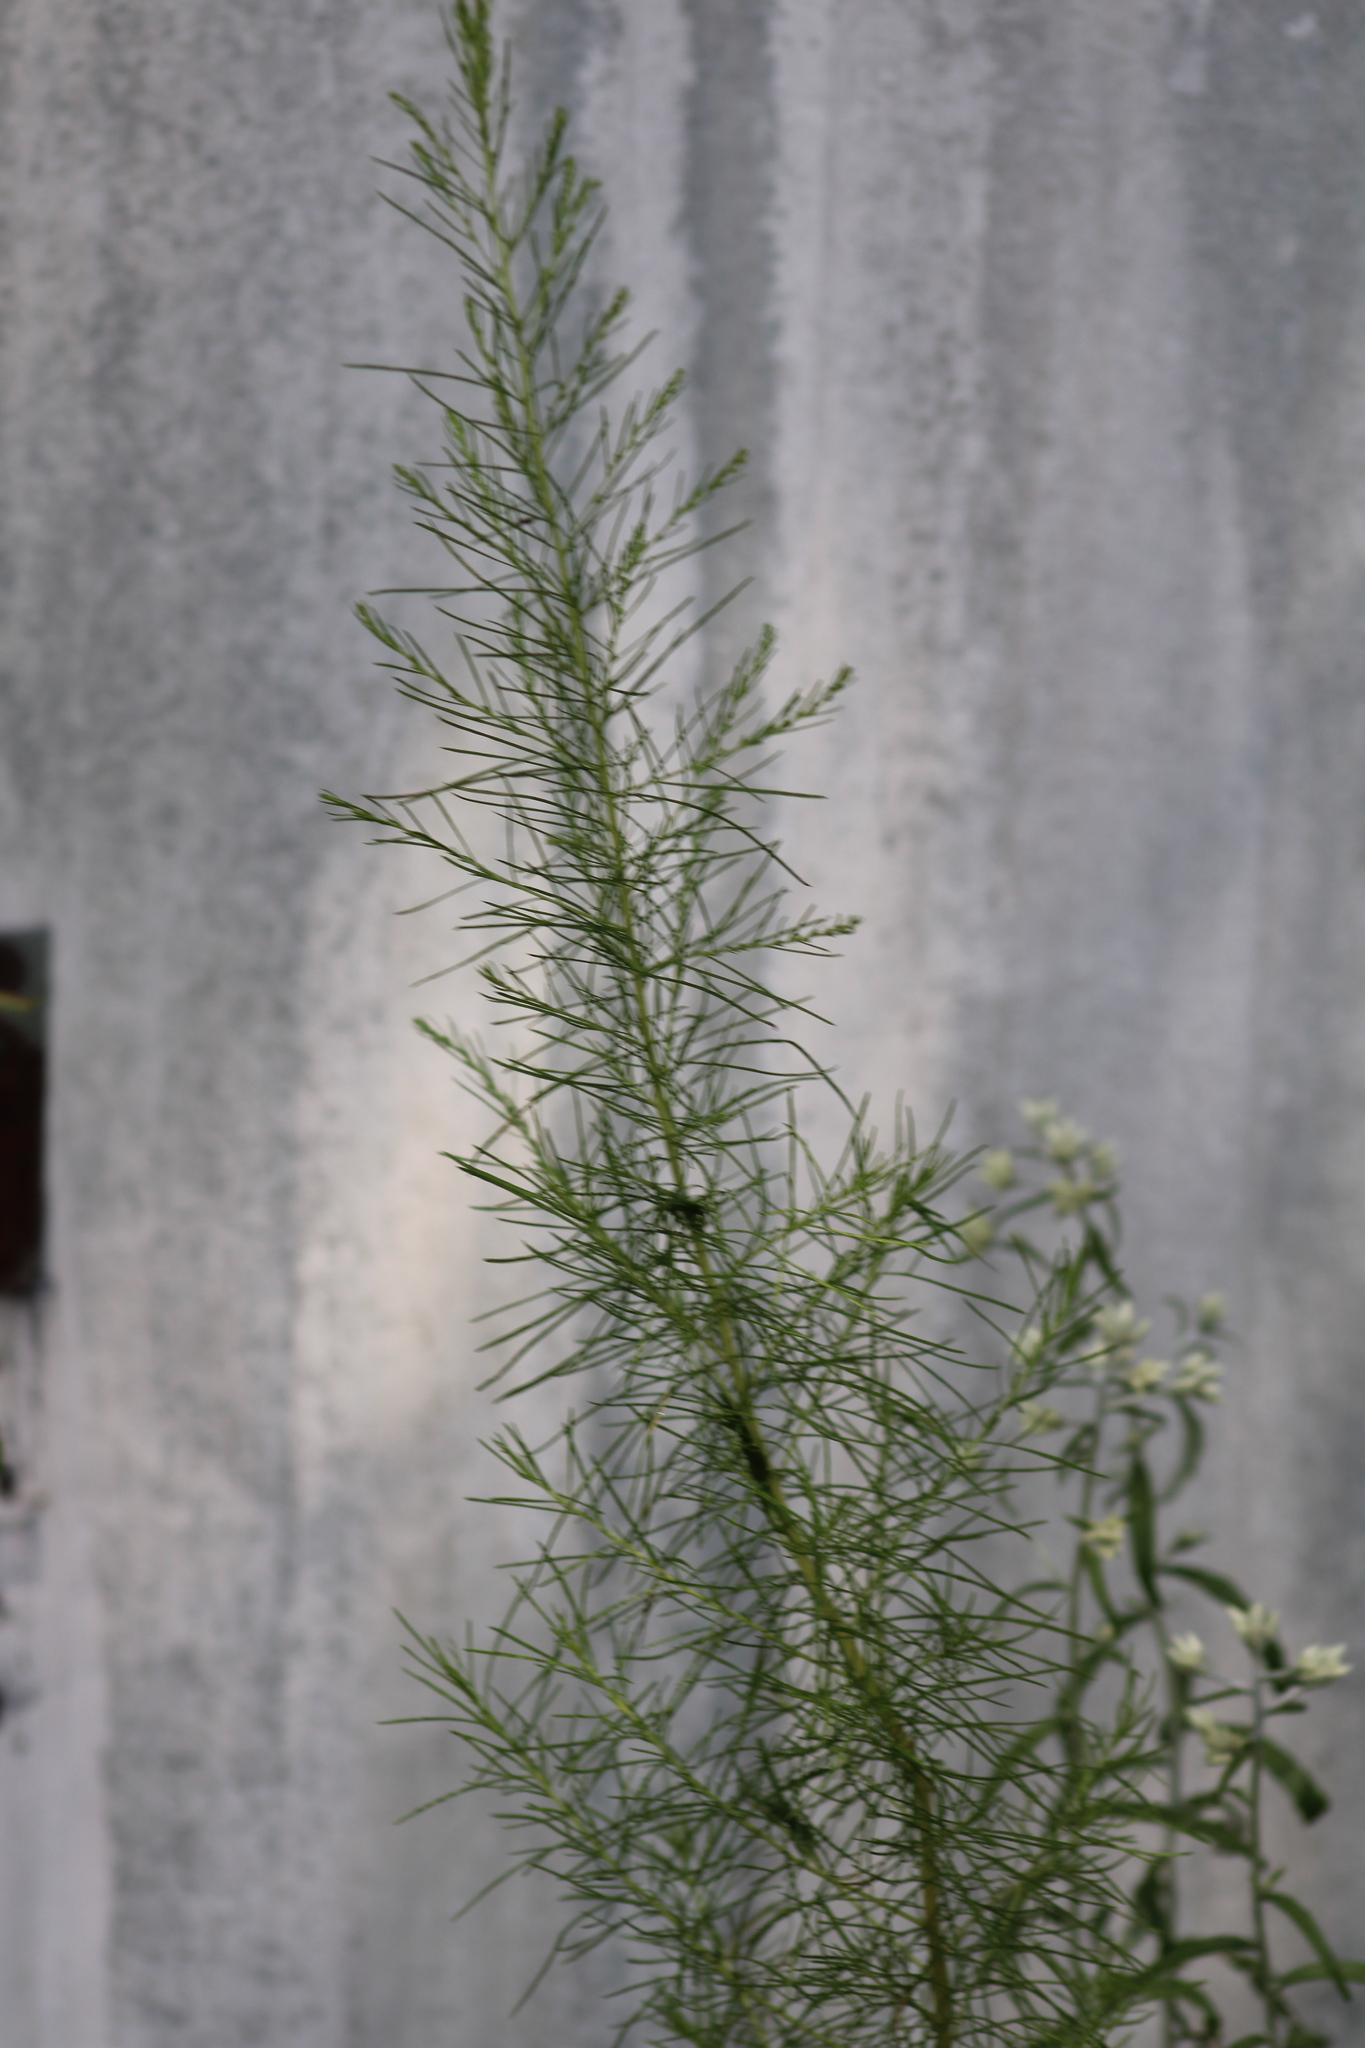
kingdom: Plantae
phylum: Tracheophyta
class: Magnoliopsida
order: Asterales
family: Asteraceae
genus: Eupatorium
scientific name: Eupatorium capillifolium
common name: Dog-fennel
